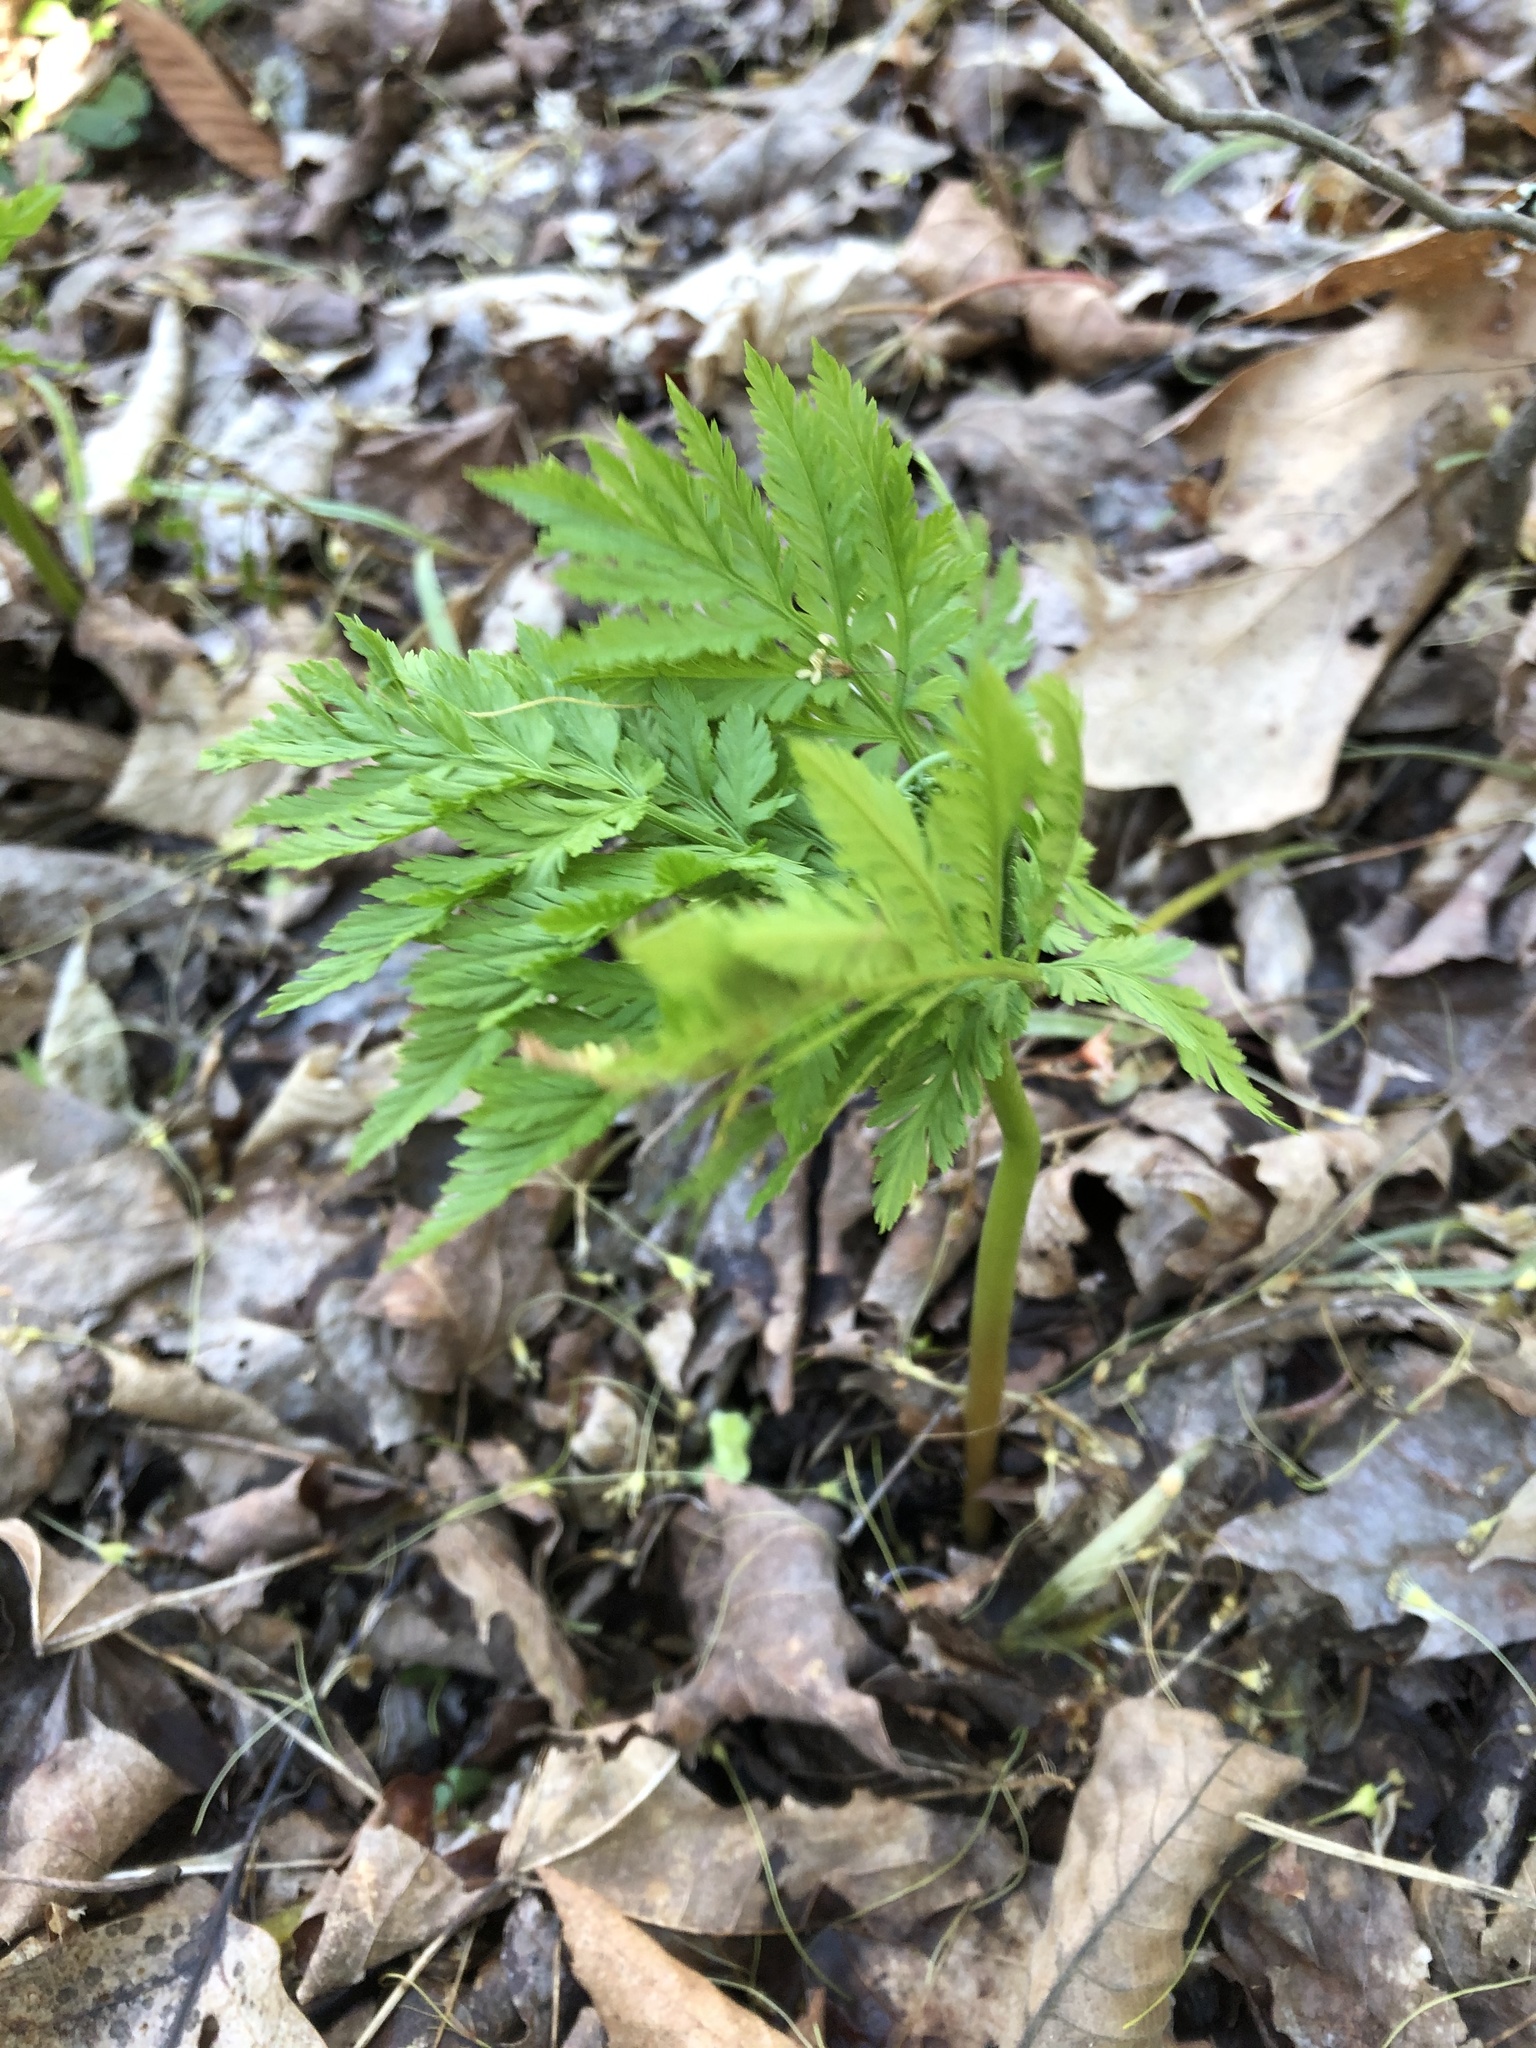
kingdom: Plantae
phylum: Tracheophyta
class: Polypodiopsida
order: Ophioglossales
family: Ophioglossaceae
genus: Botrypus
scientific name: Botrypus virginianus
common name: Common grapefern
